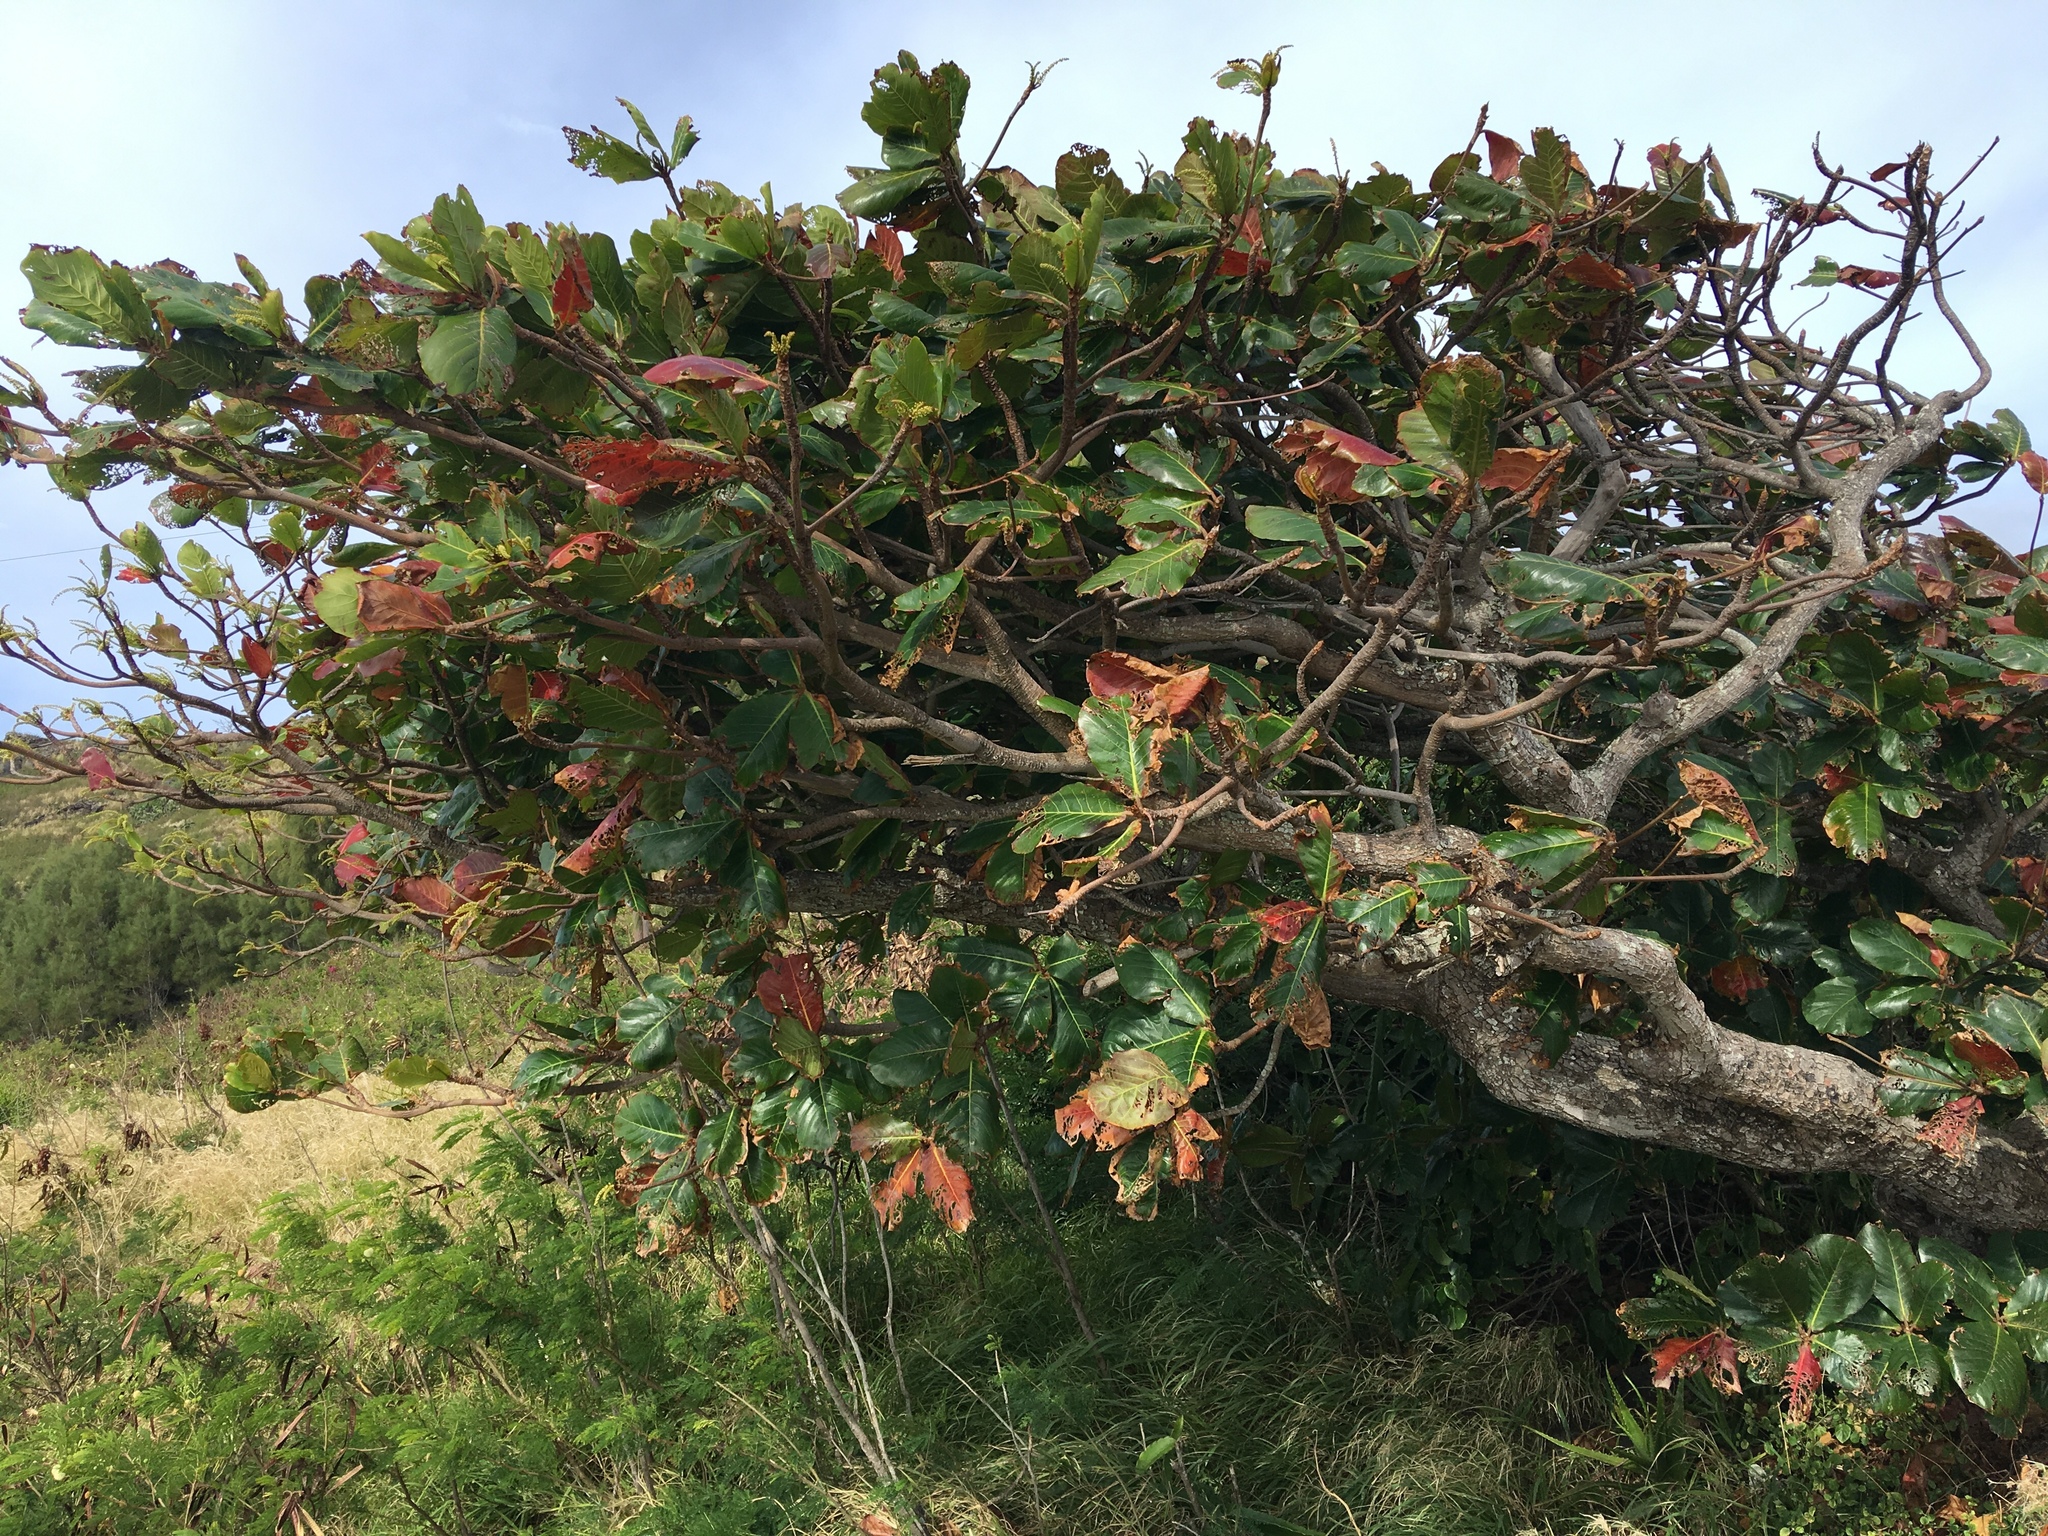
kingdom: Plantae
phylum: Tracheophyta
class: Magnoliopsida
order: Myrtales
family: Combretaceae
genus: Terminalia
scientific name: Terminalia catappa
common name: Tropical almond
